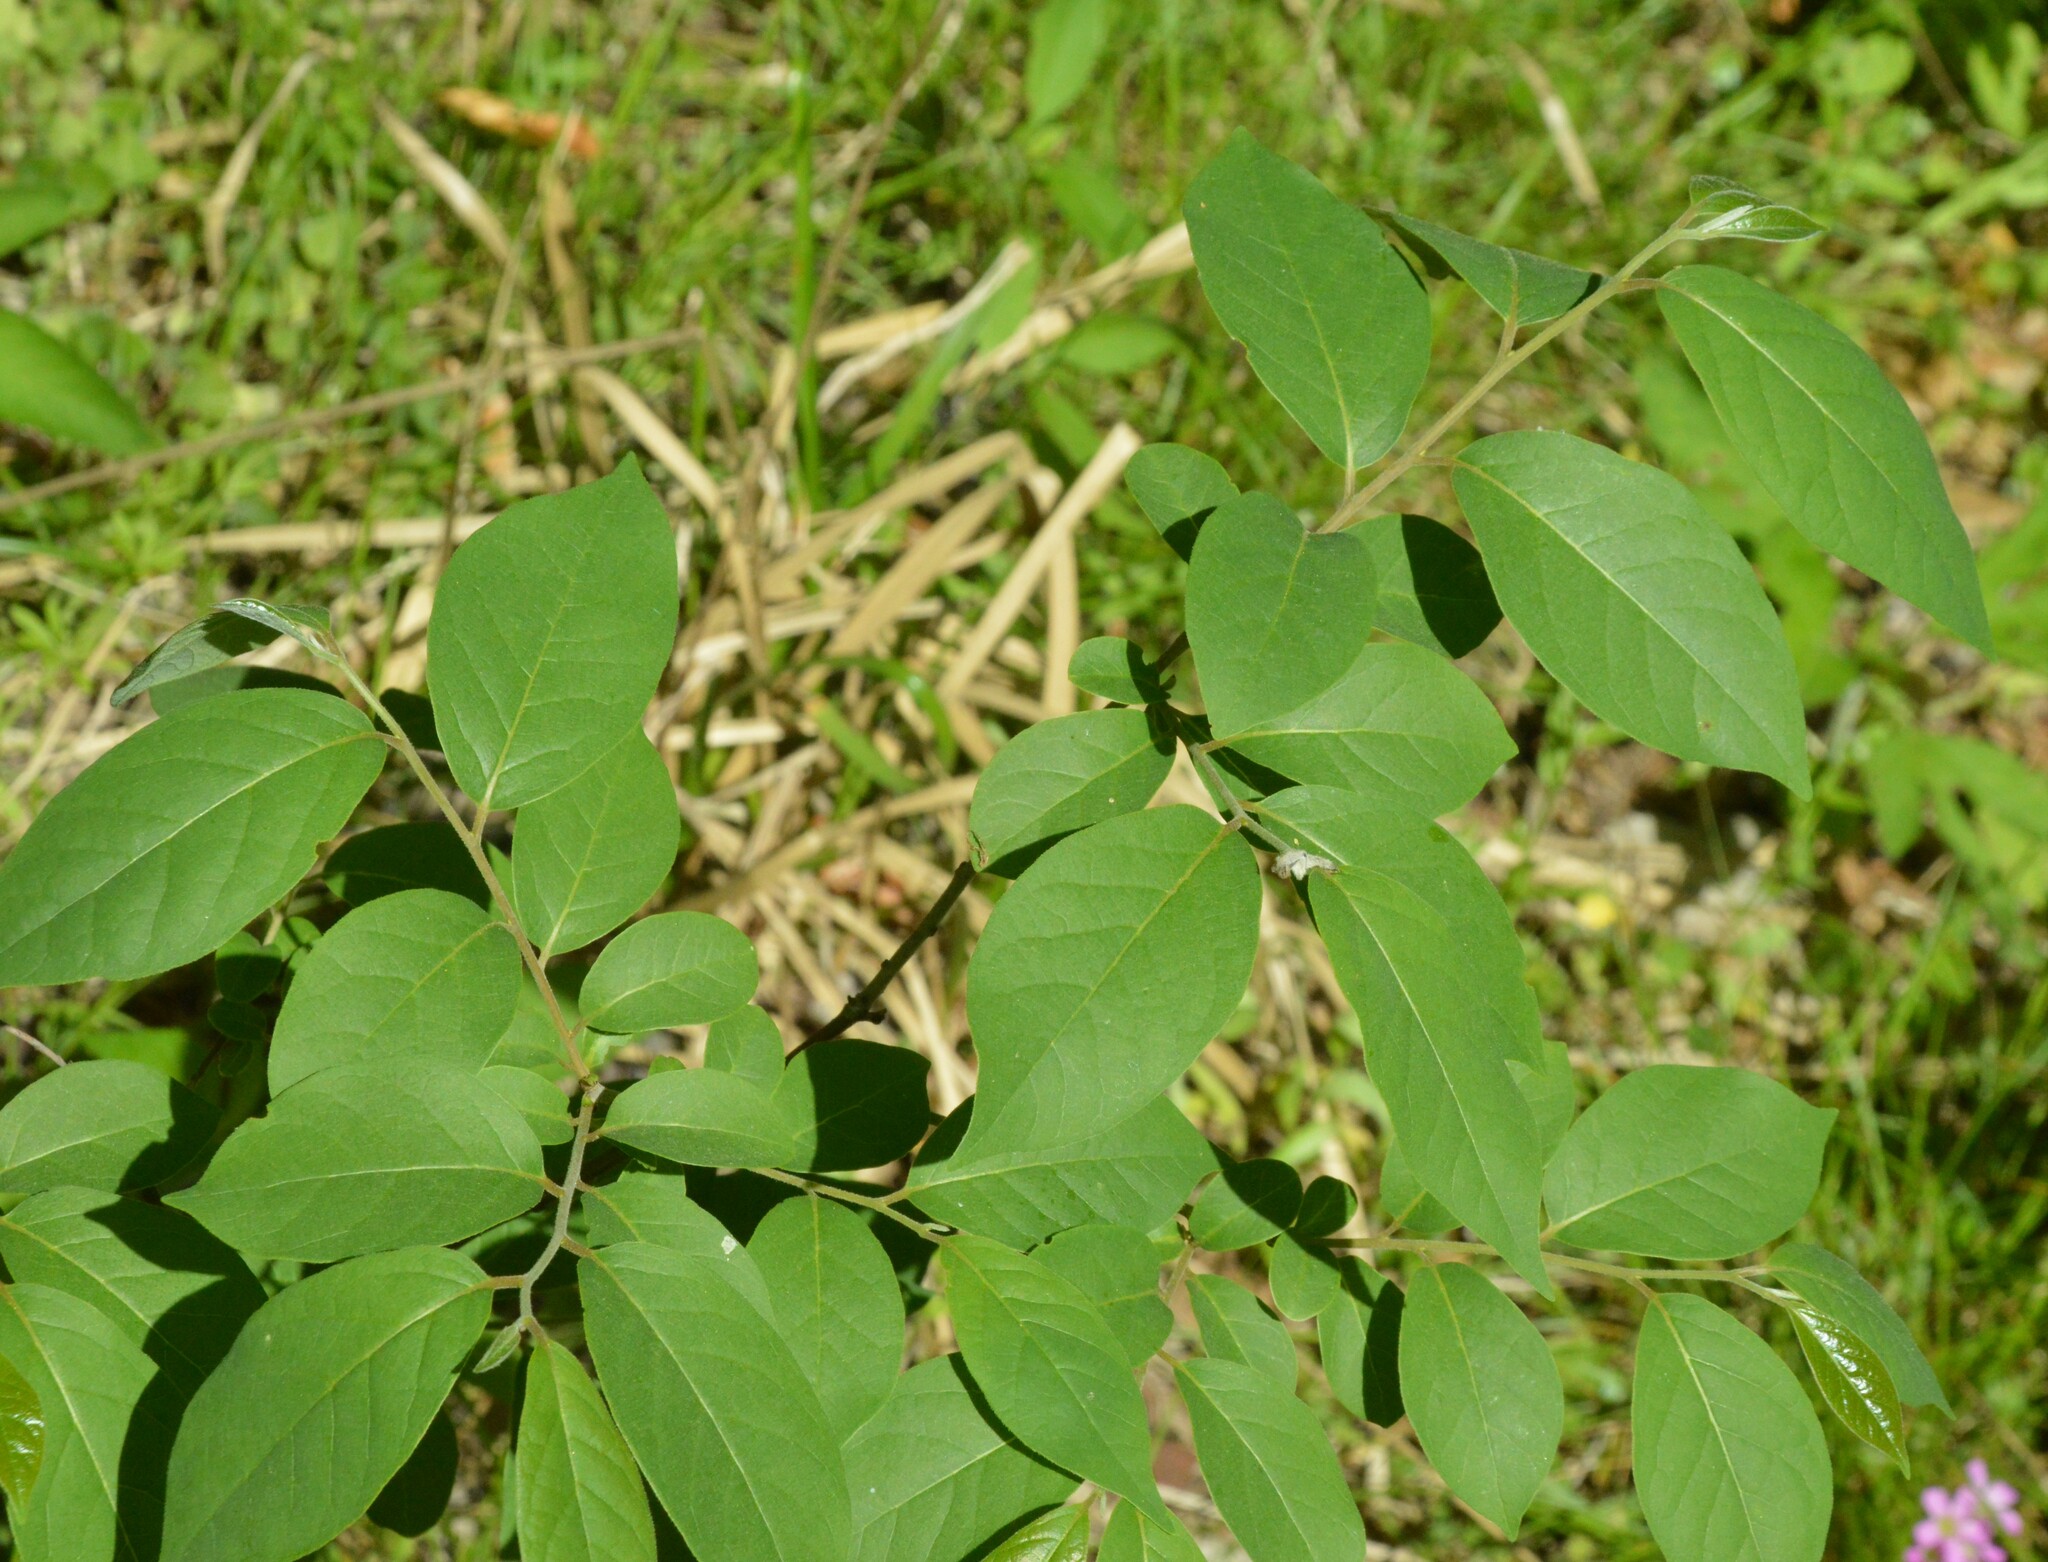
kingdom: Plantae
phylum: Tracheophyta
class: Magnoliopsida
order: Ericales
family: Ebenaceae
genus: Diospyros
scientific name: Diospyros virginiana
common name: Persimmon
